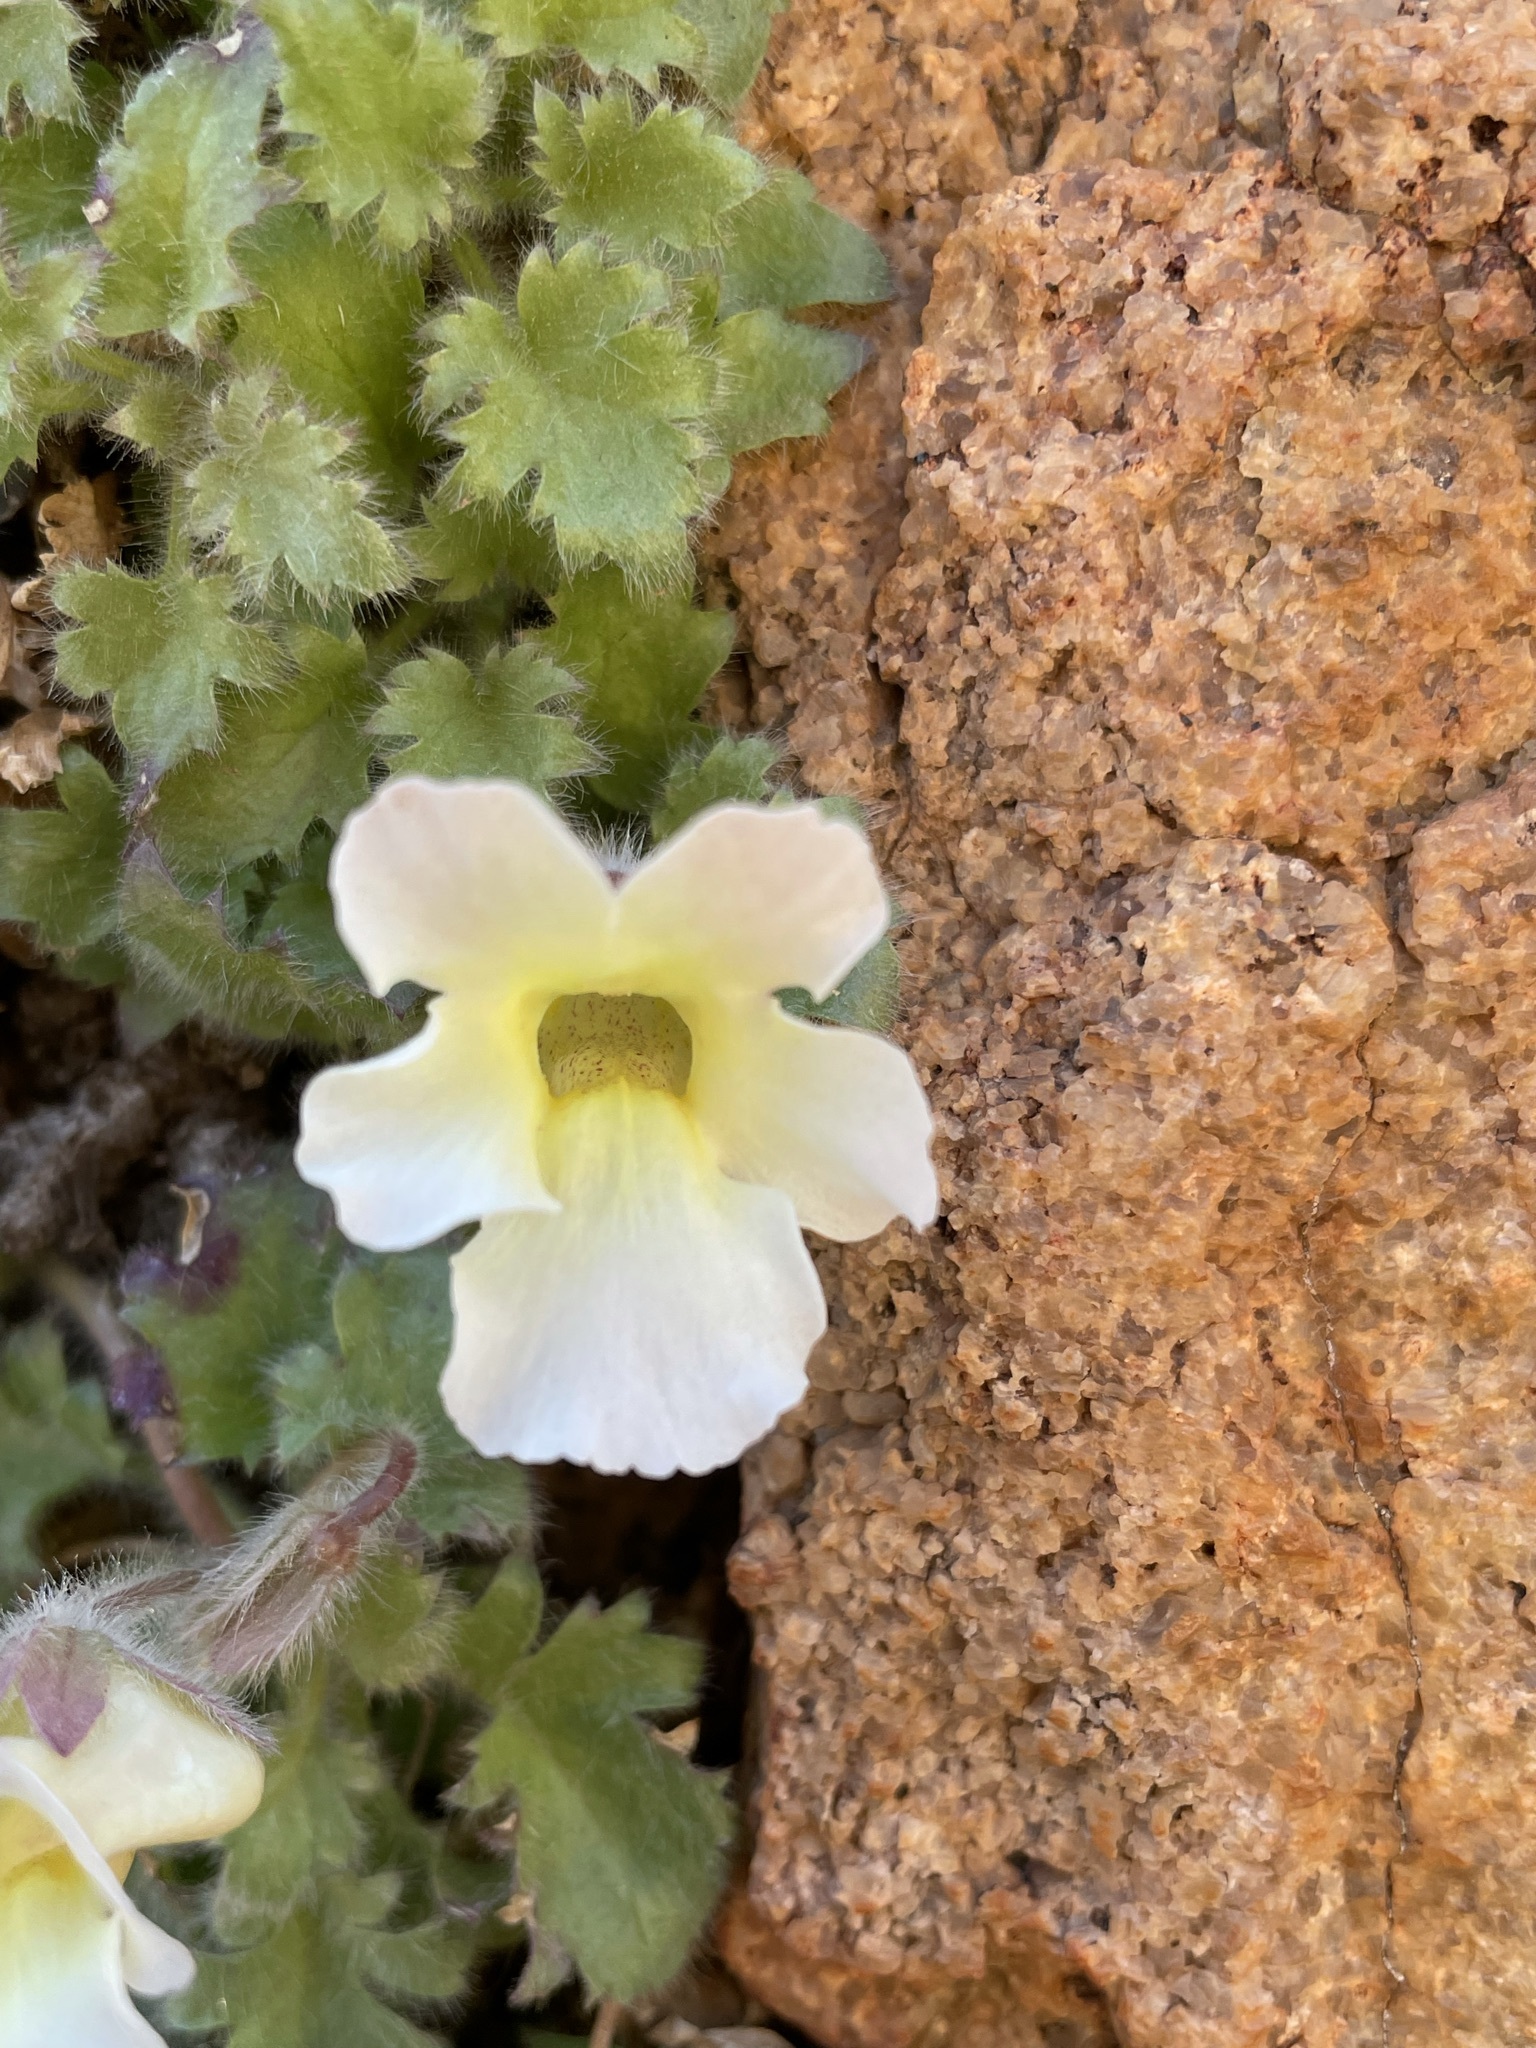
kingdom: Plantae
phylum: Tracheophyta
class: Magnoliopsida
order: Lamiales
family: Scrophulariaceae
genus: Colpias
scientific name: Colpias mollis
